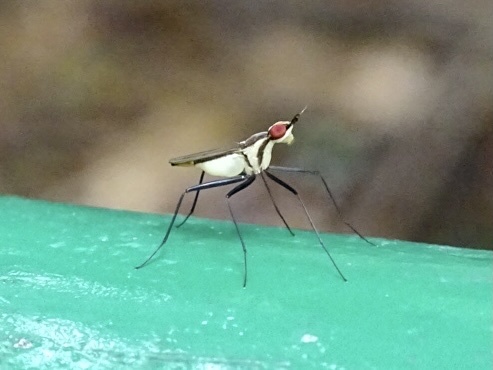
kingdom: Animalia
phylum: Arthropoda
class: Insecta
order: Diptera
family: Neriidae
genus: Telostylinus
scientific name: Telostylinus lineolatus
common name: Banana stalk fly
